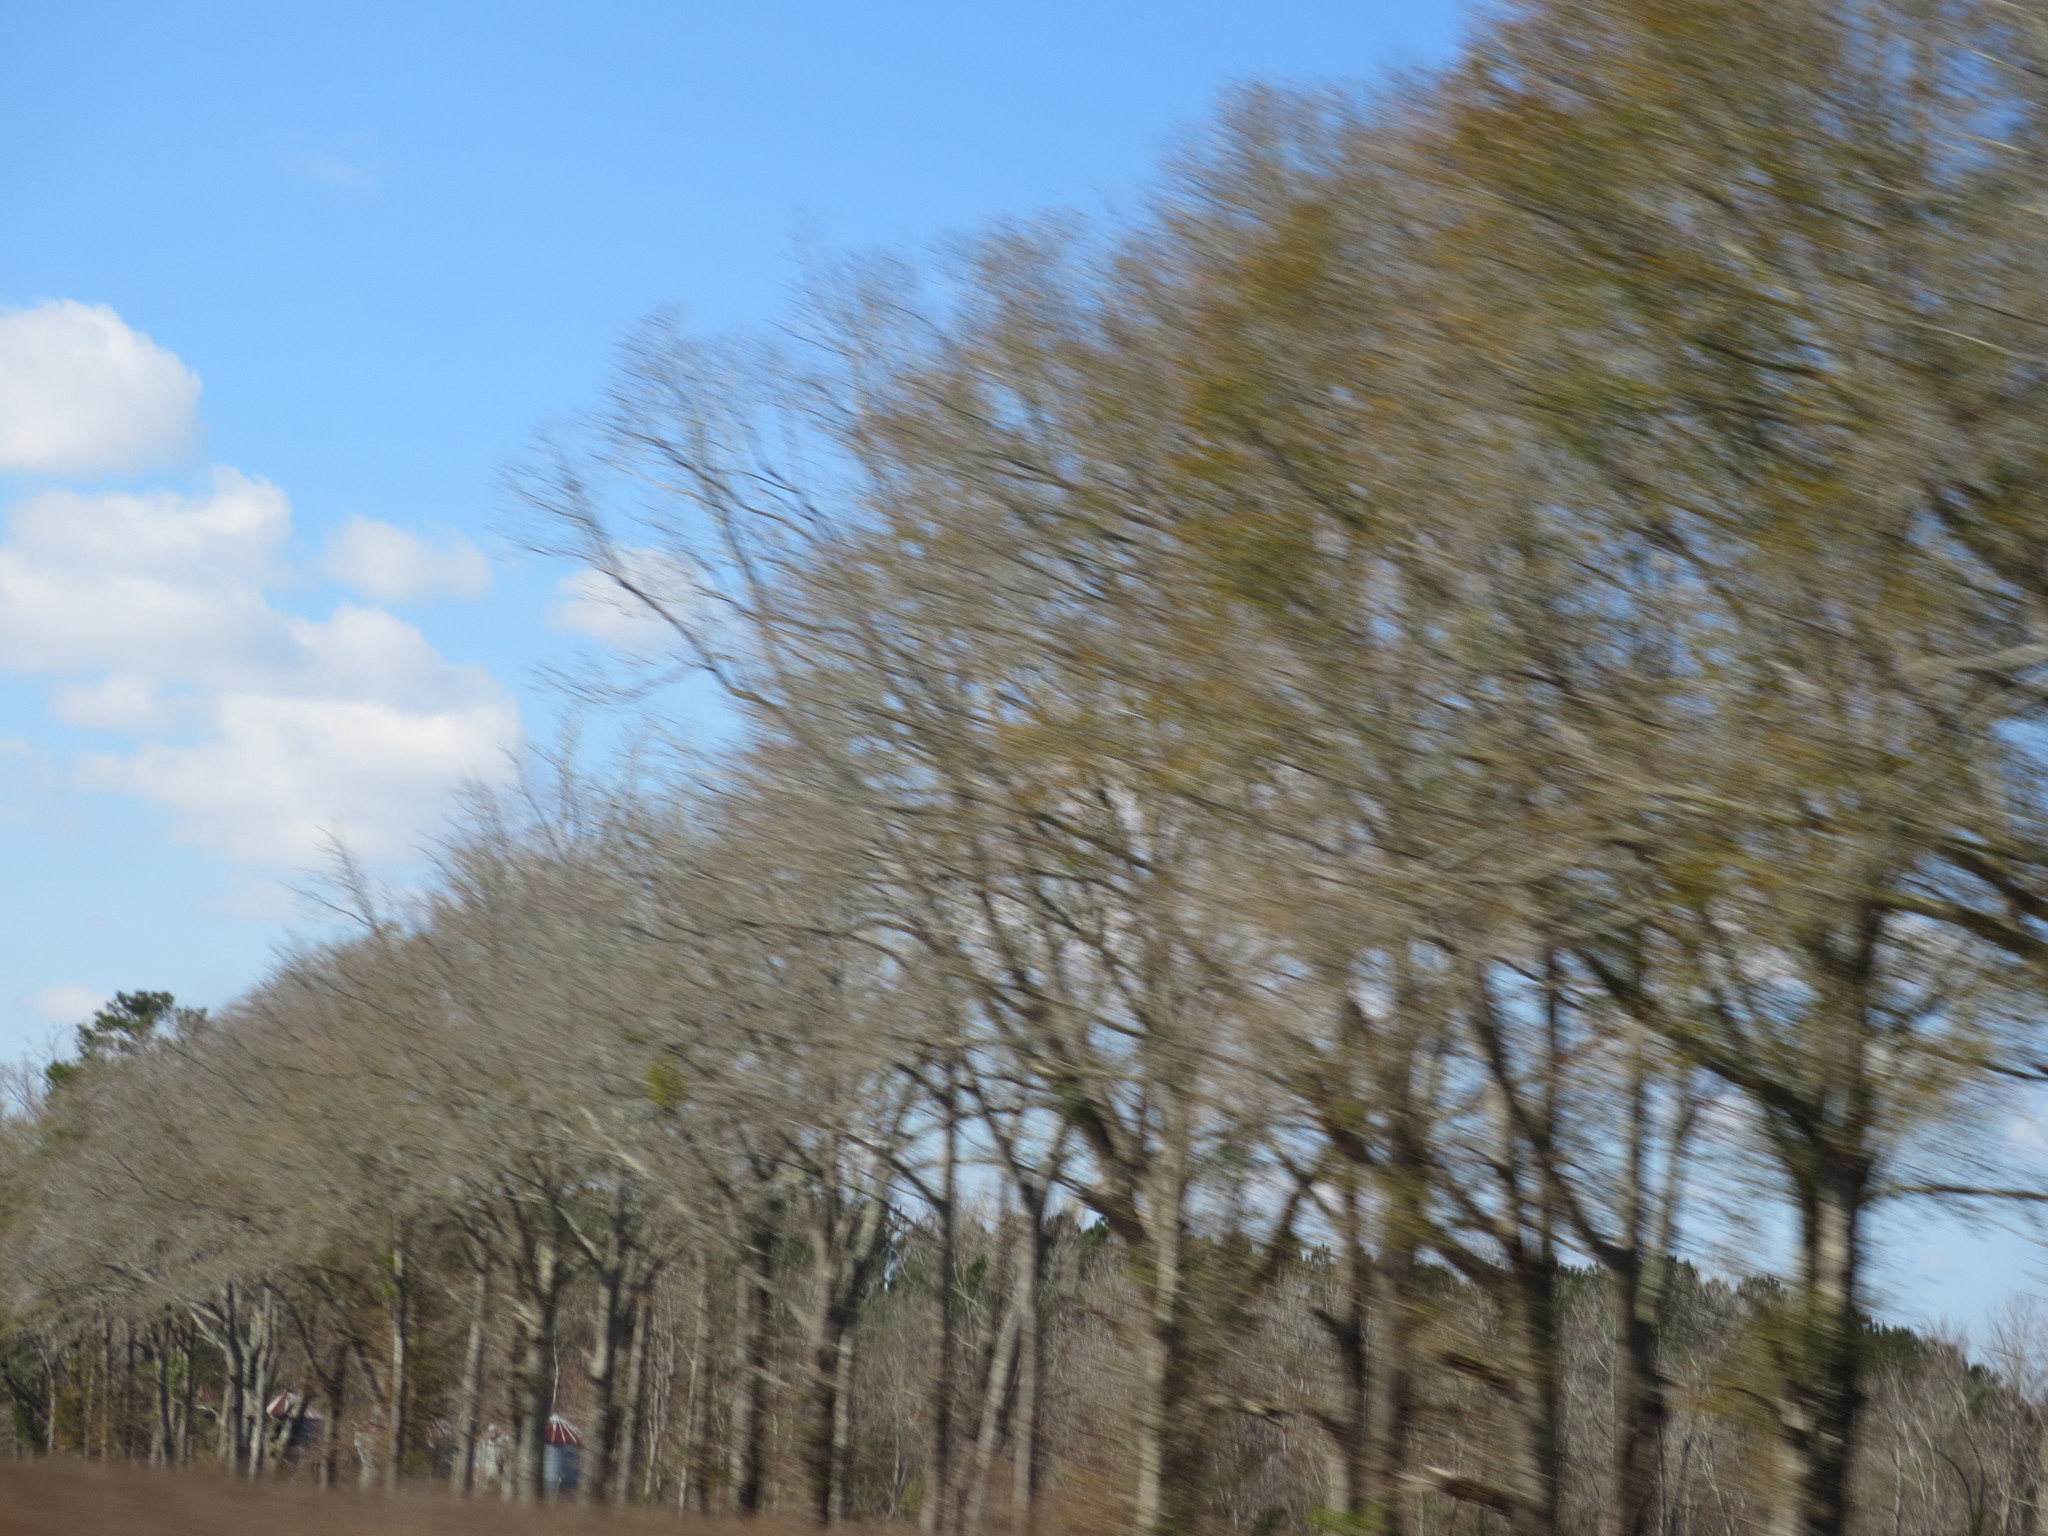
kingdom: Plantae
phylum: Tracheophyta
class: Magnoliopsida
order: Santalales
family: Viscaceae
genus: Phoradendron
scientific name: Phoradendron leucarpum
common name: Pacific mistletoe
